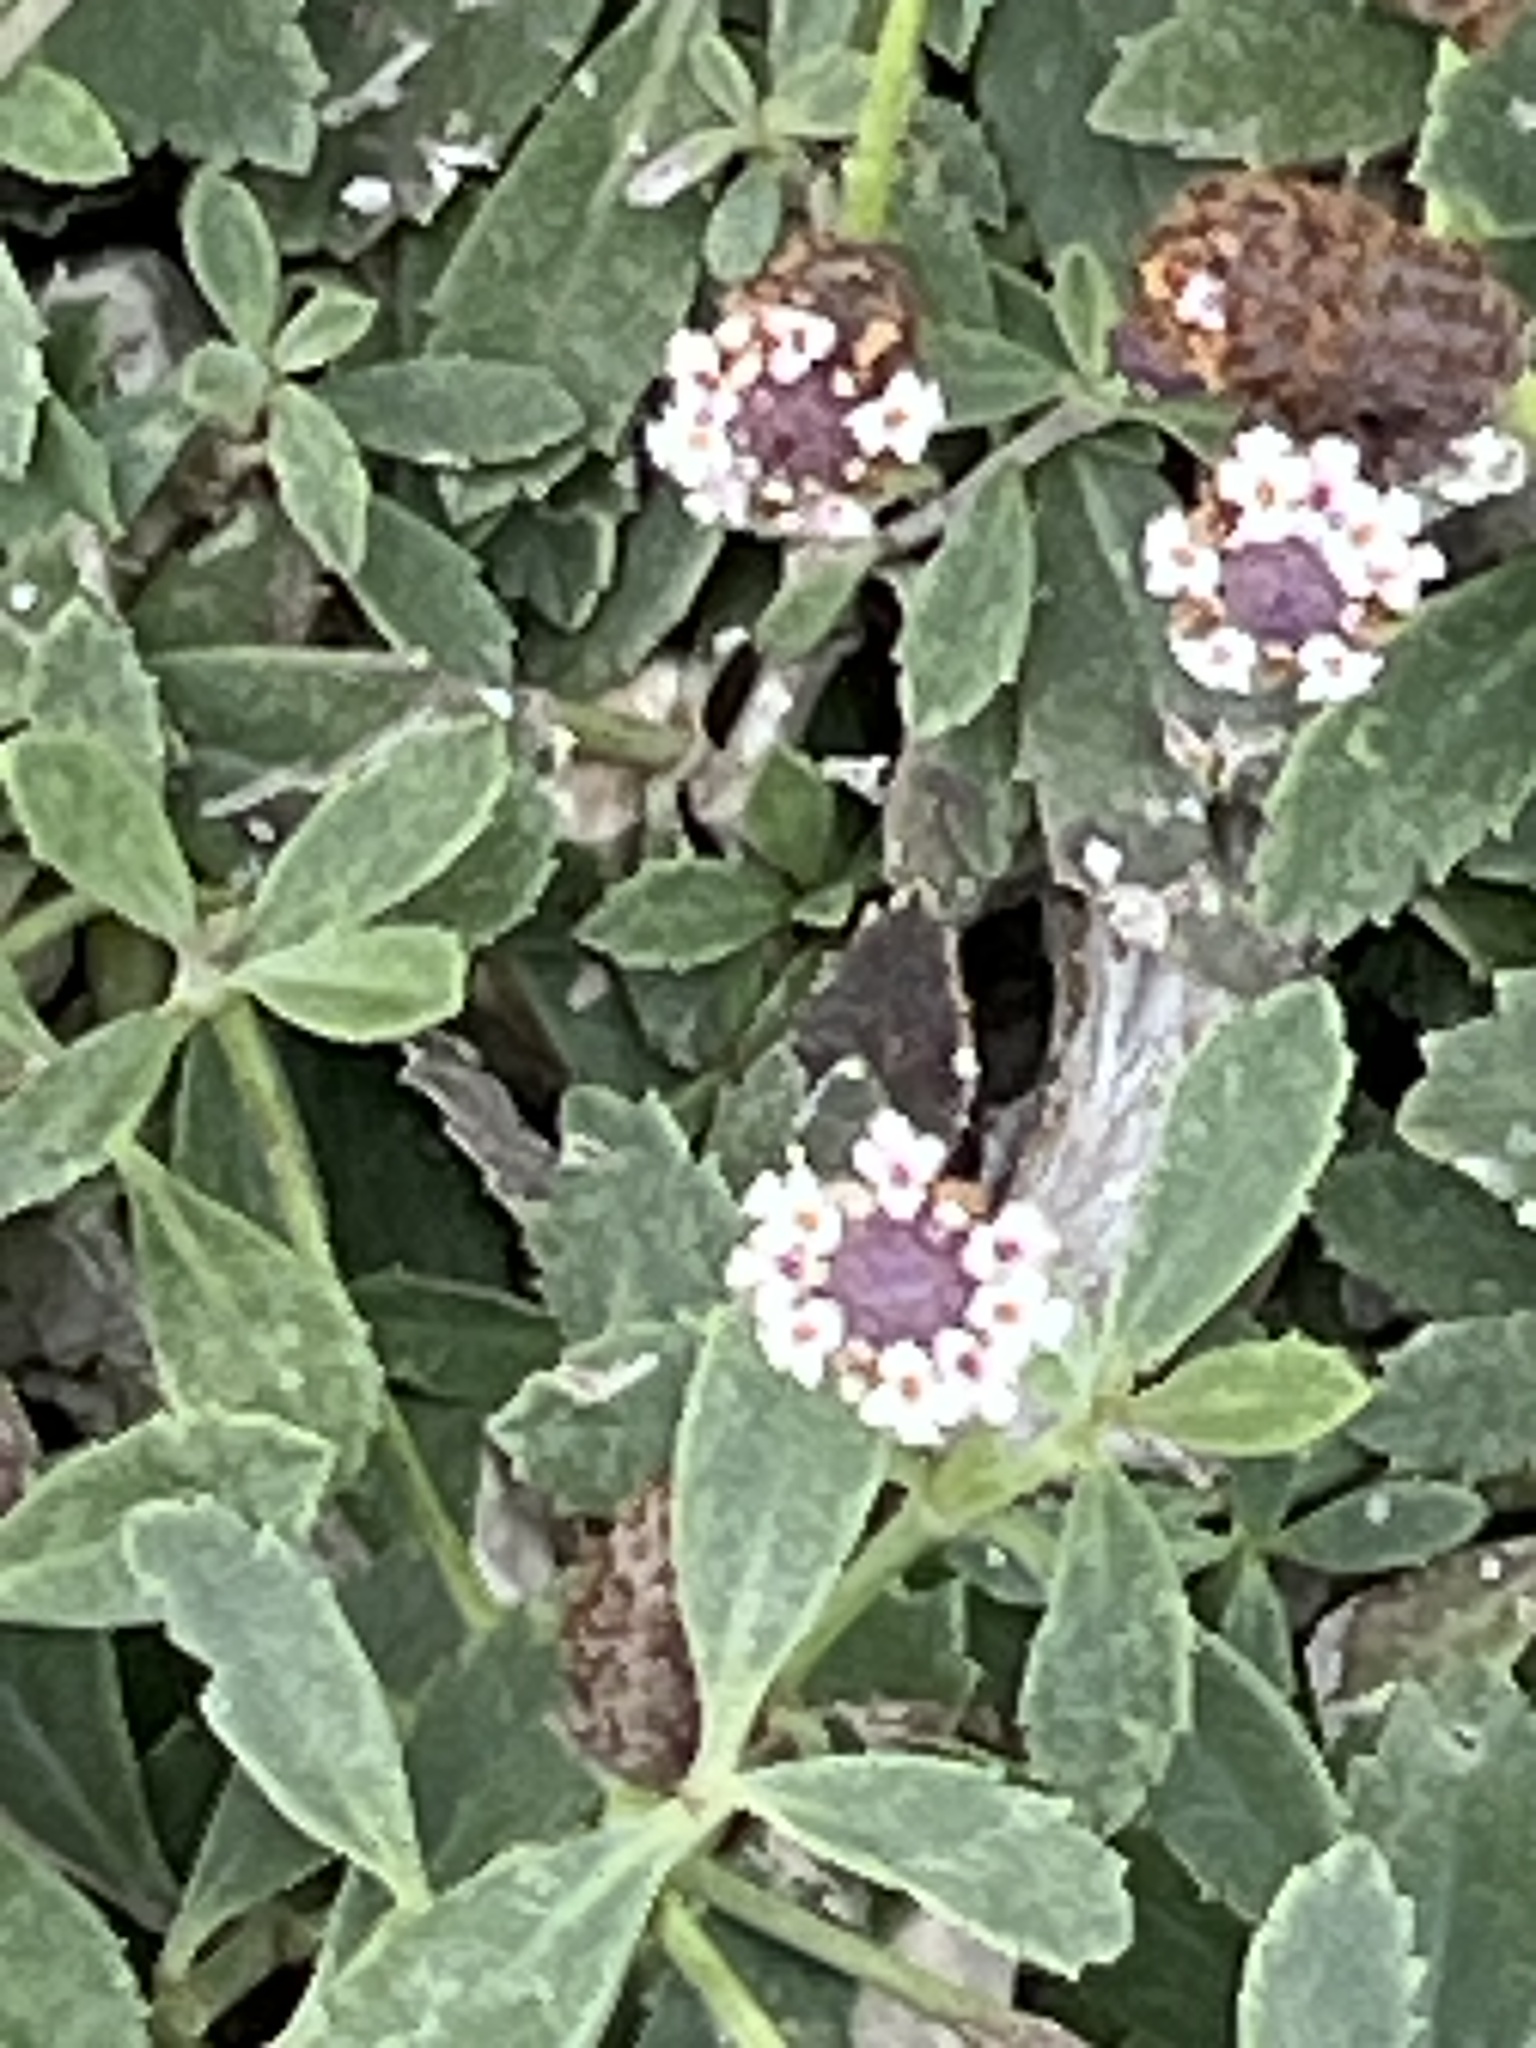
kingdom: Plantae
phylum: Tracheophyta
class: Magnoliopsida
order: Lamiales
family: Verbenaceae
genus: Phyla
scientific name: Phyla nodiflora
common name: Frogfruit
